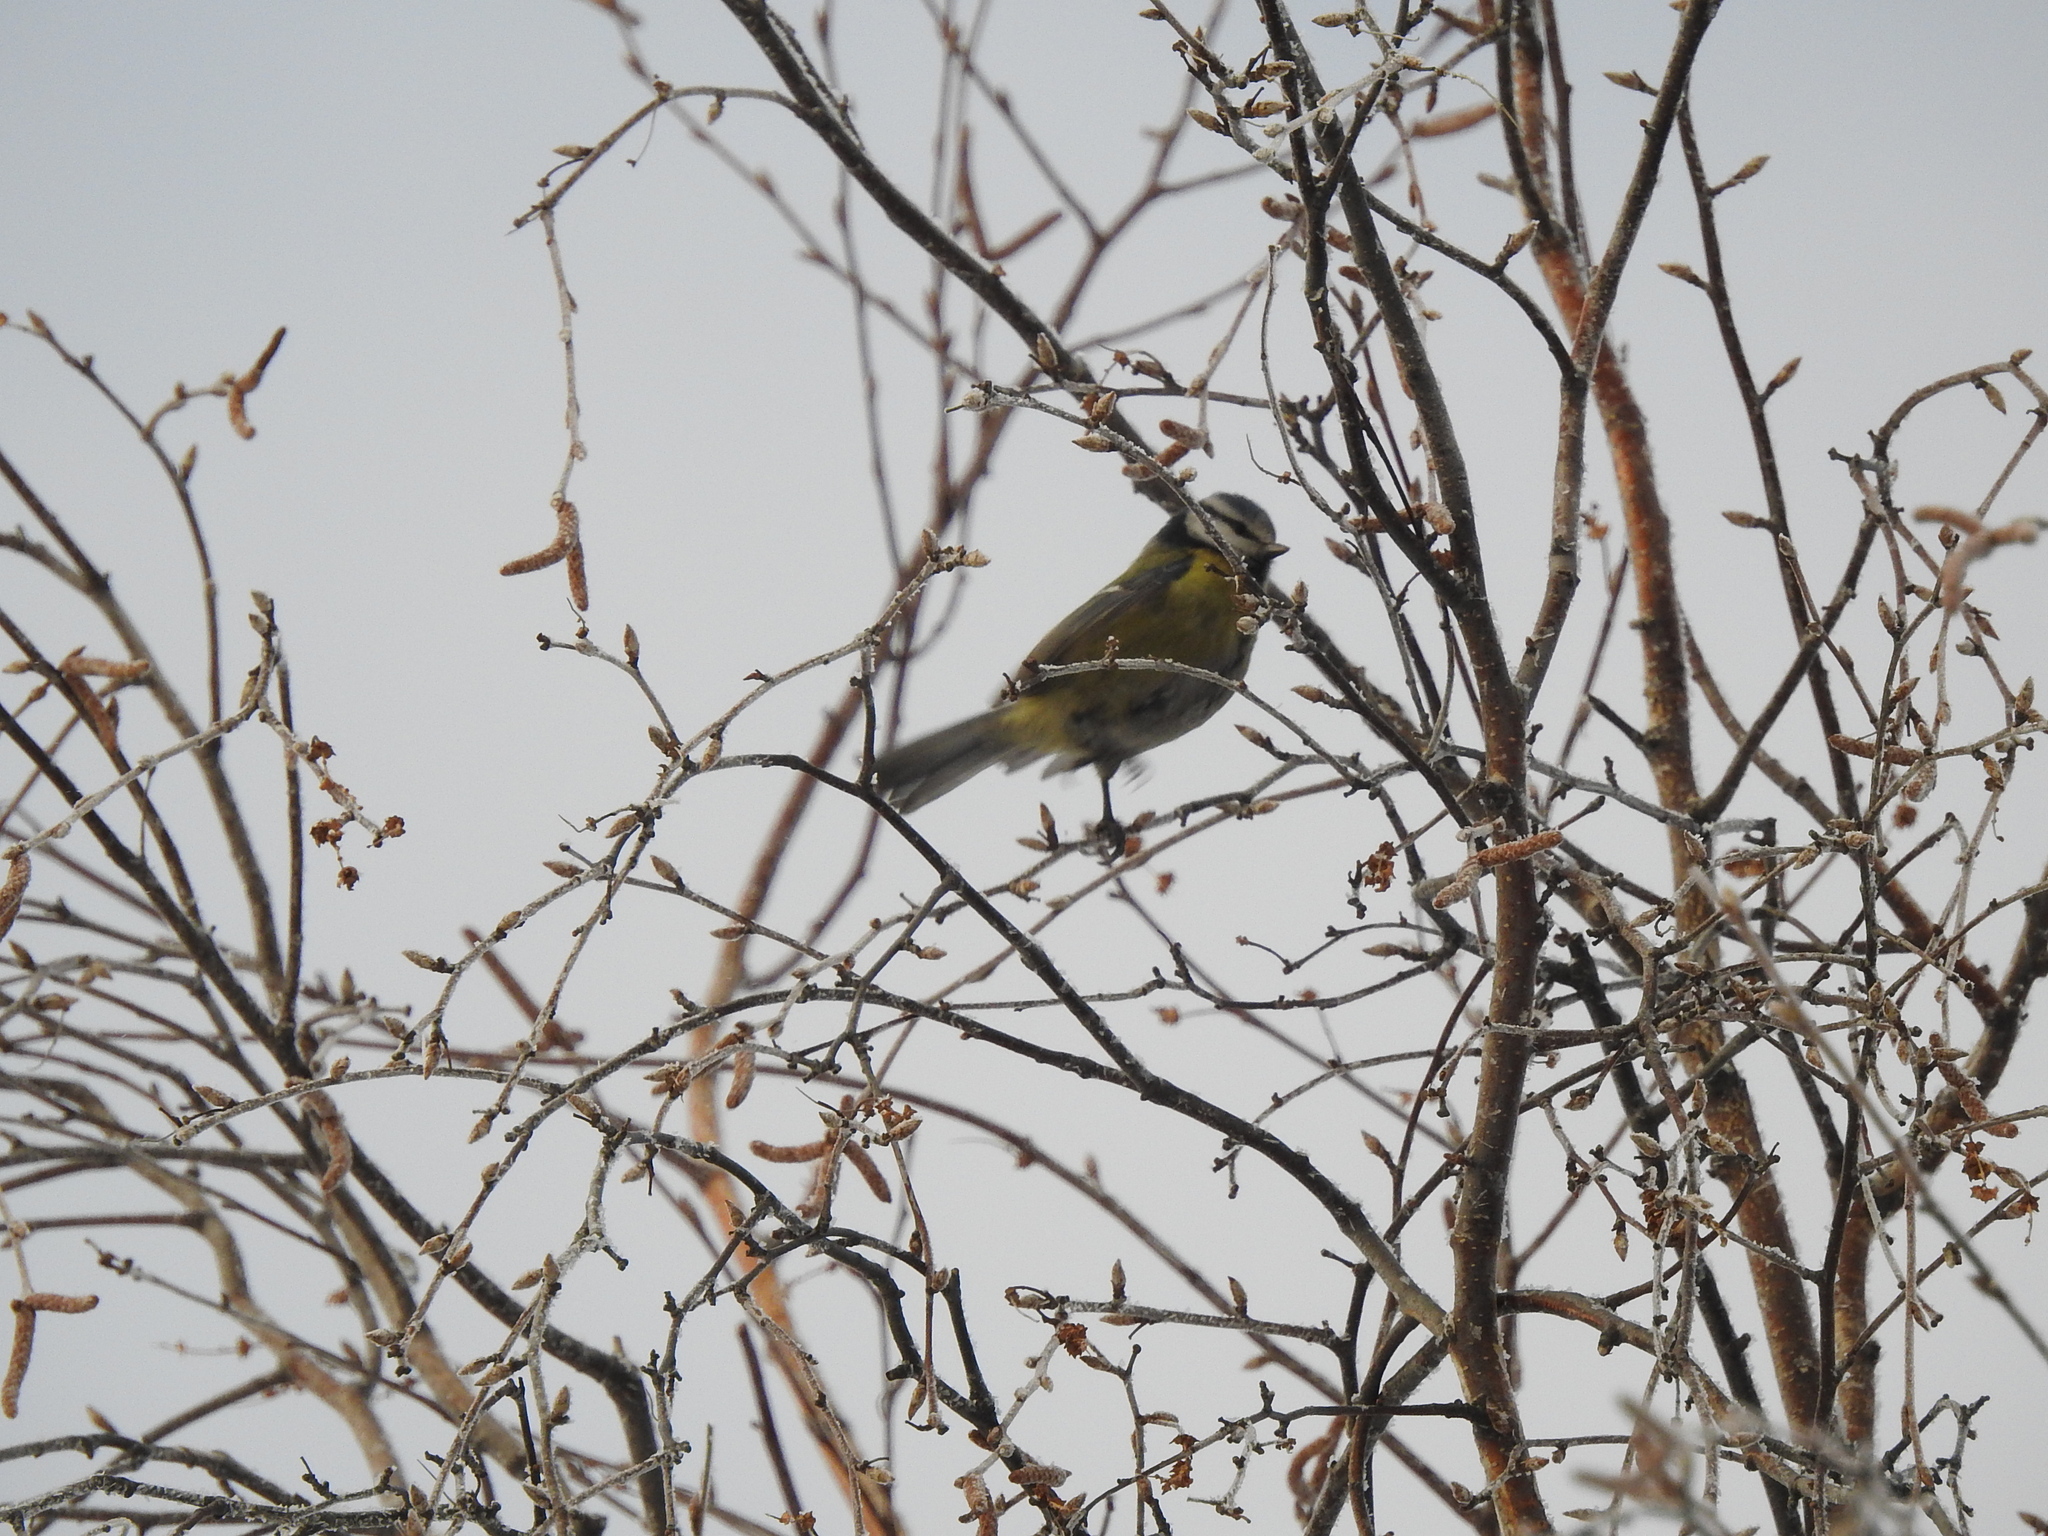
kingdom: Animalia
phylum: Chordata
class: Aves
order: Passeriformes
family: Paridae
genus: Cyanistes
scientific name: Cyanistes caeruleus
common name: Eurasian blue tit
